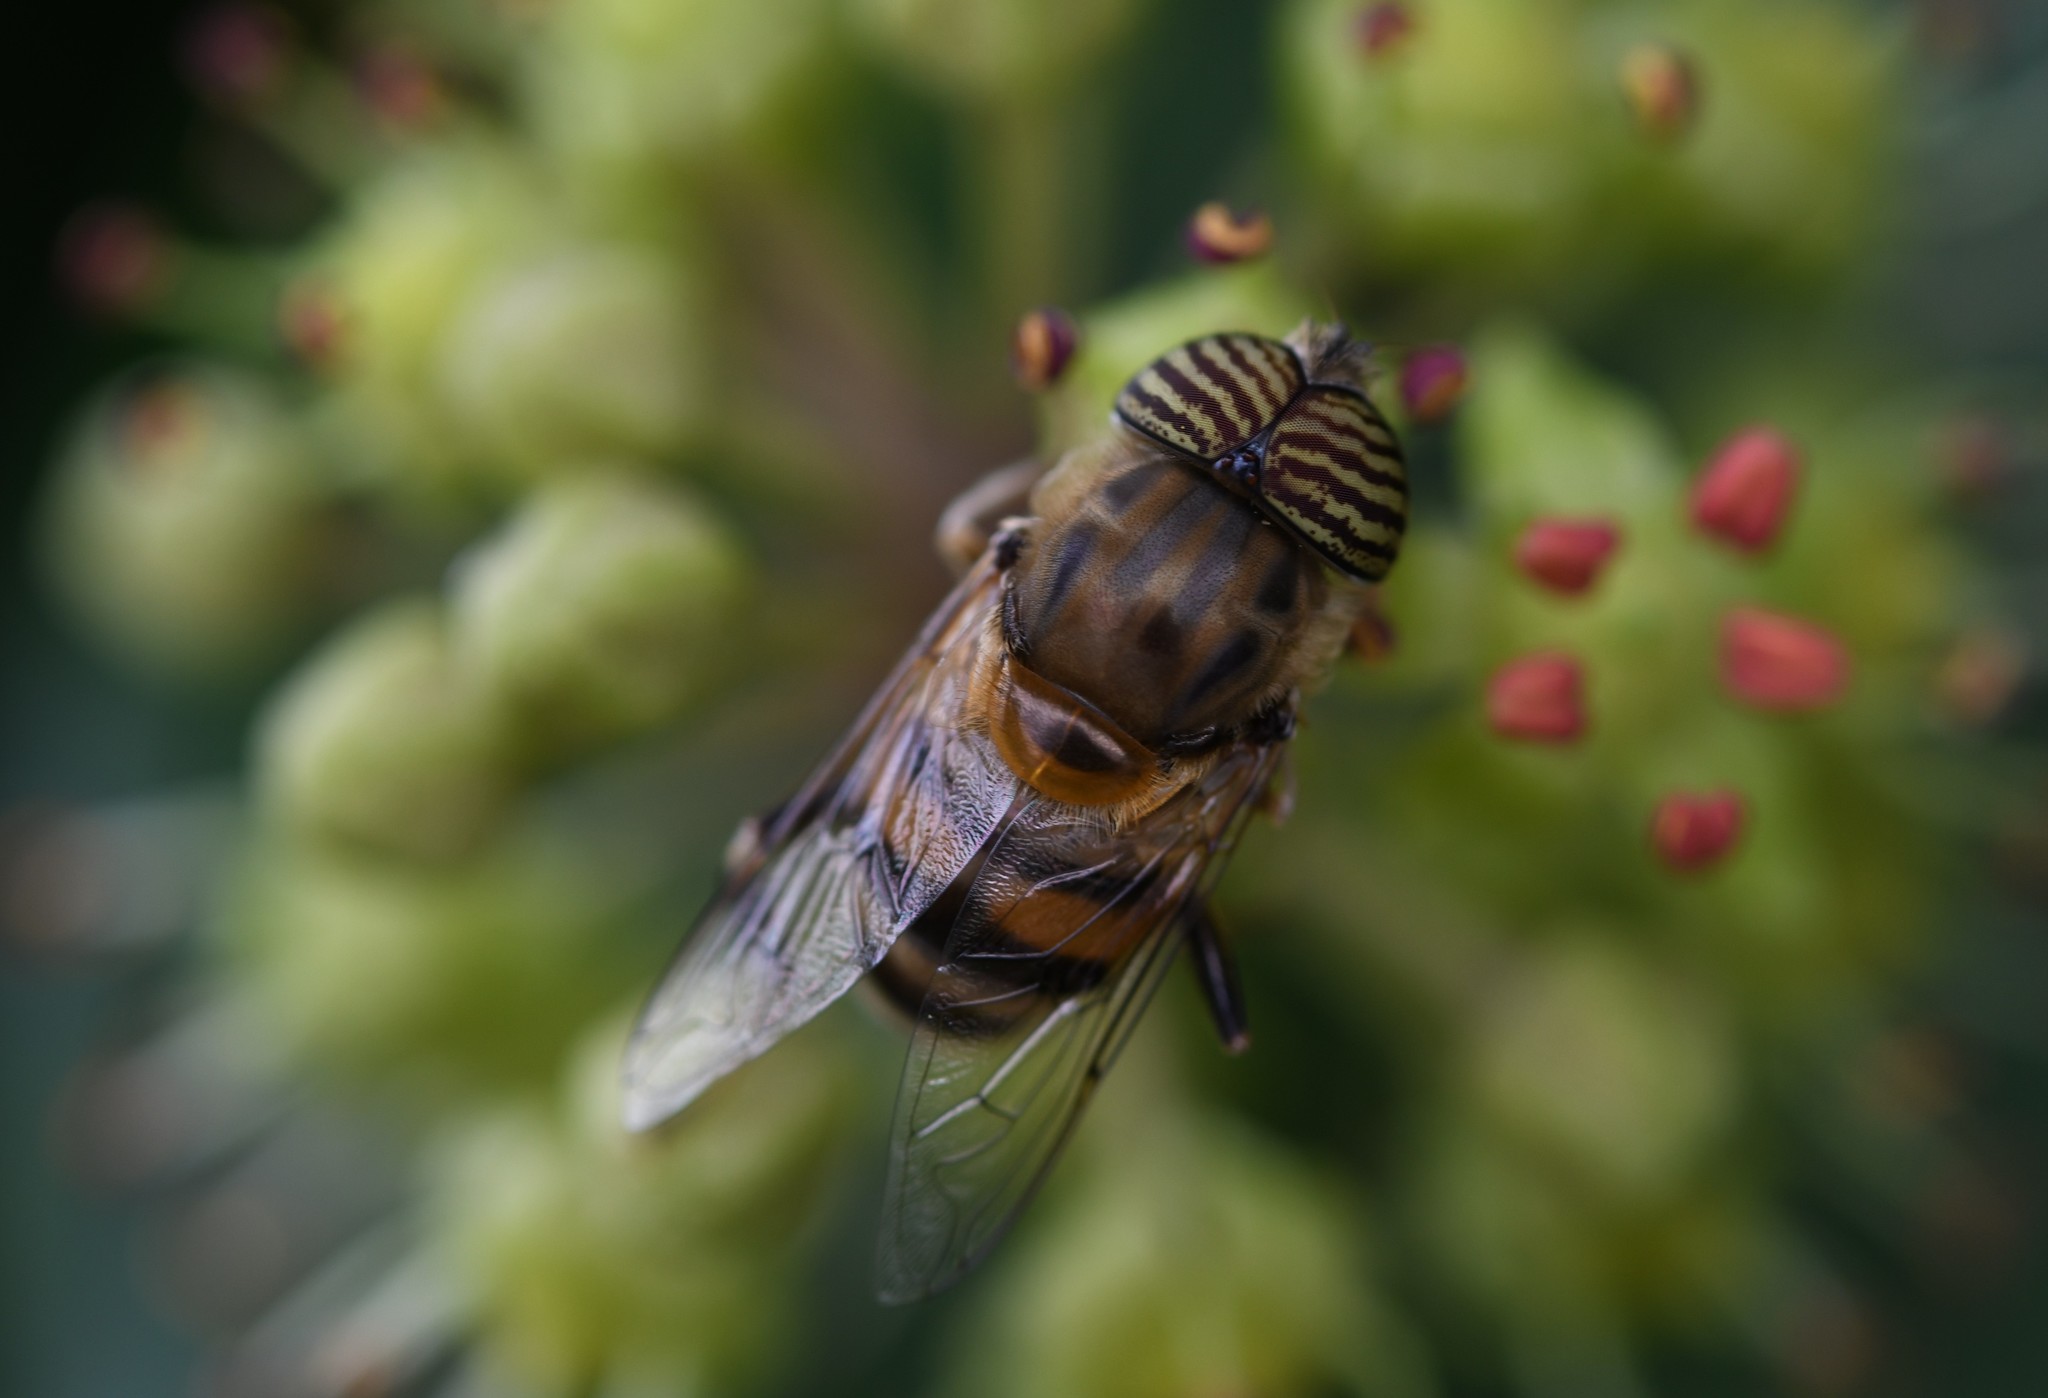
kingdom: Animalia
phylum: Arthropoda
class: Insecta
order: Diptera
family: Syrphidae
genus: Eristalinus
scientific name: Eristalinus taeniops
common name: Syrphid fly
